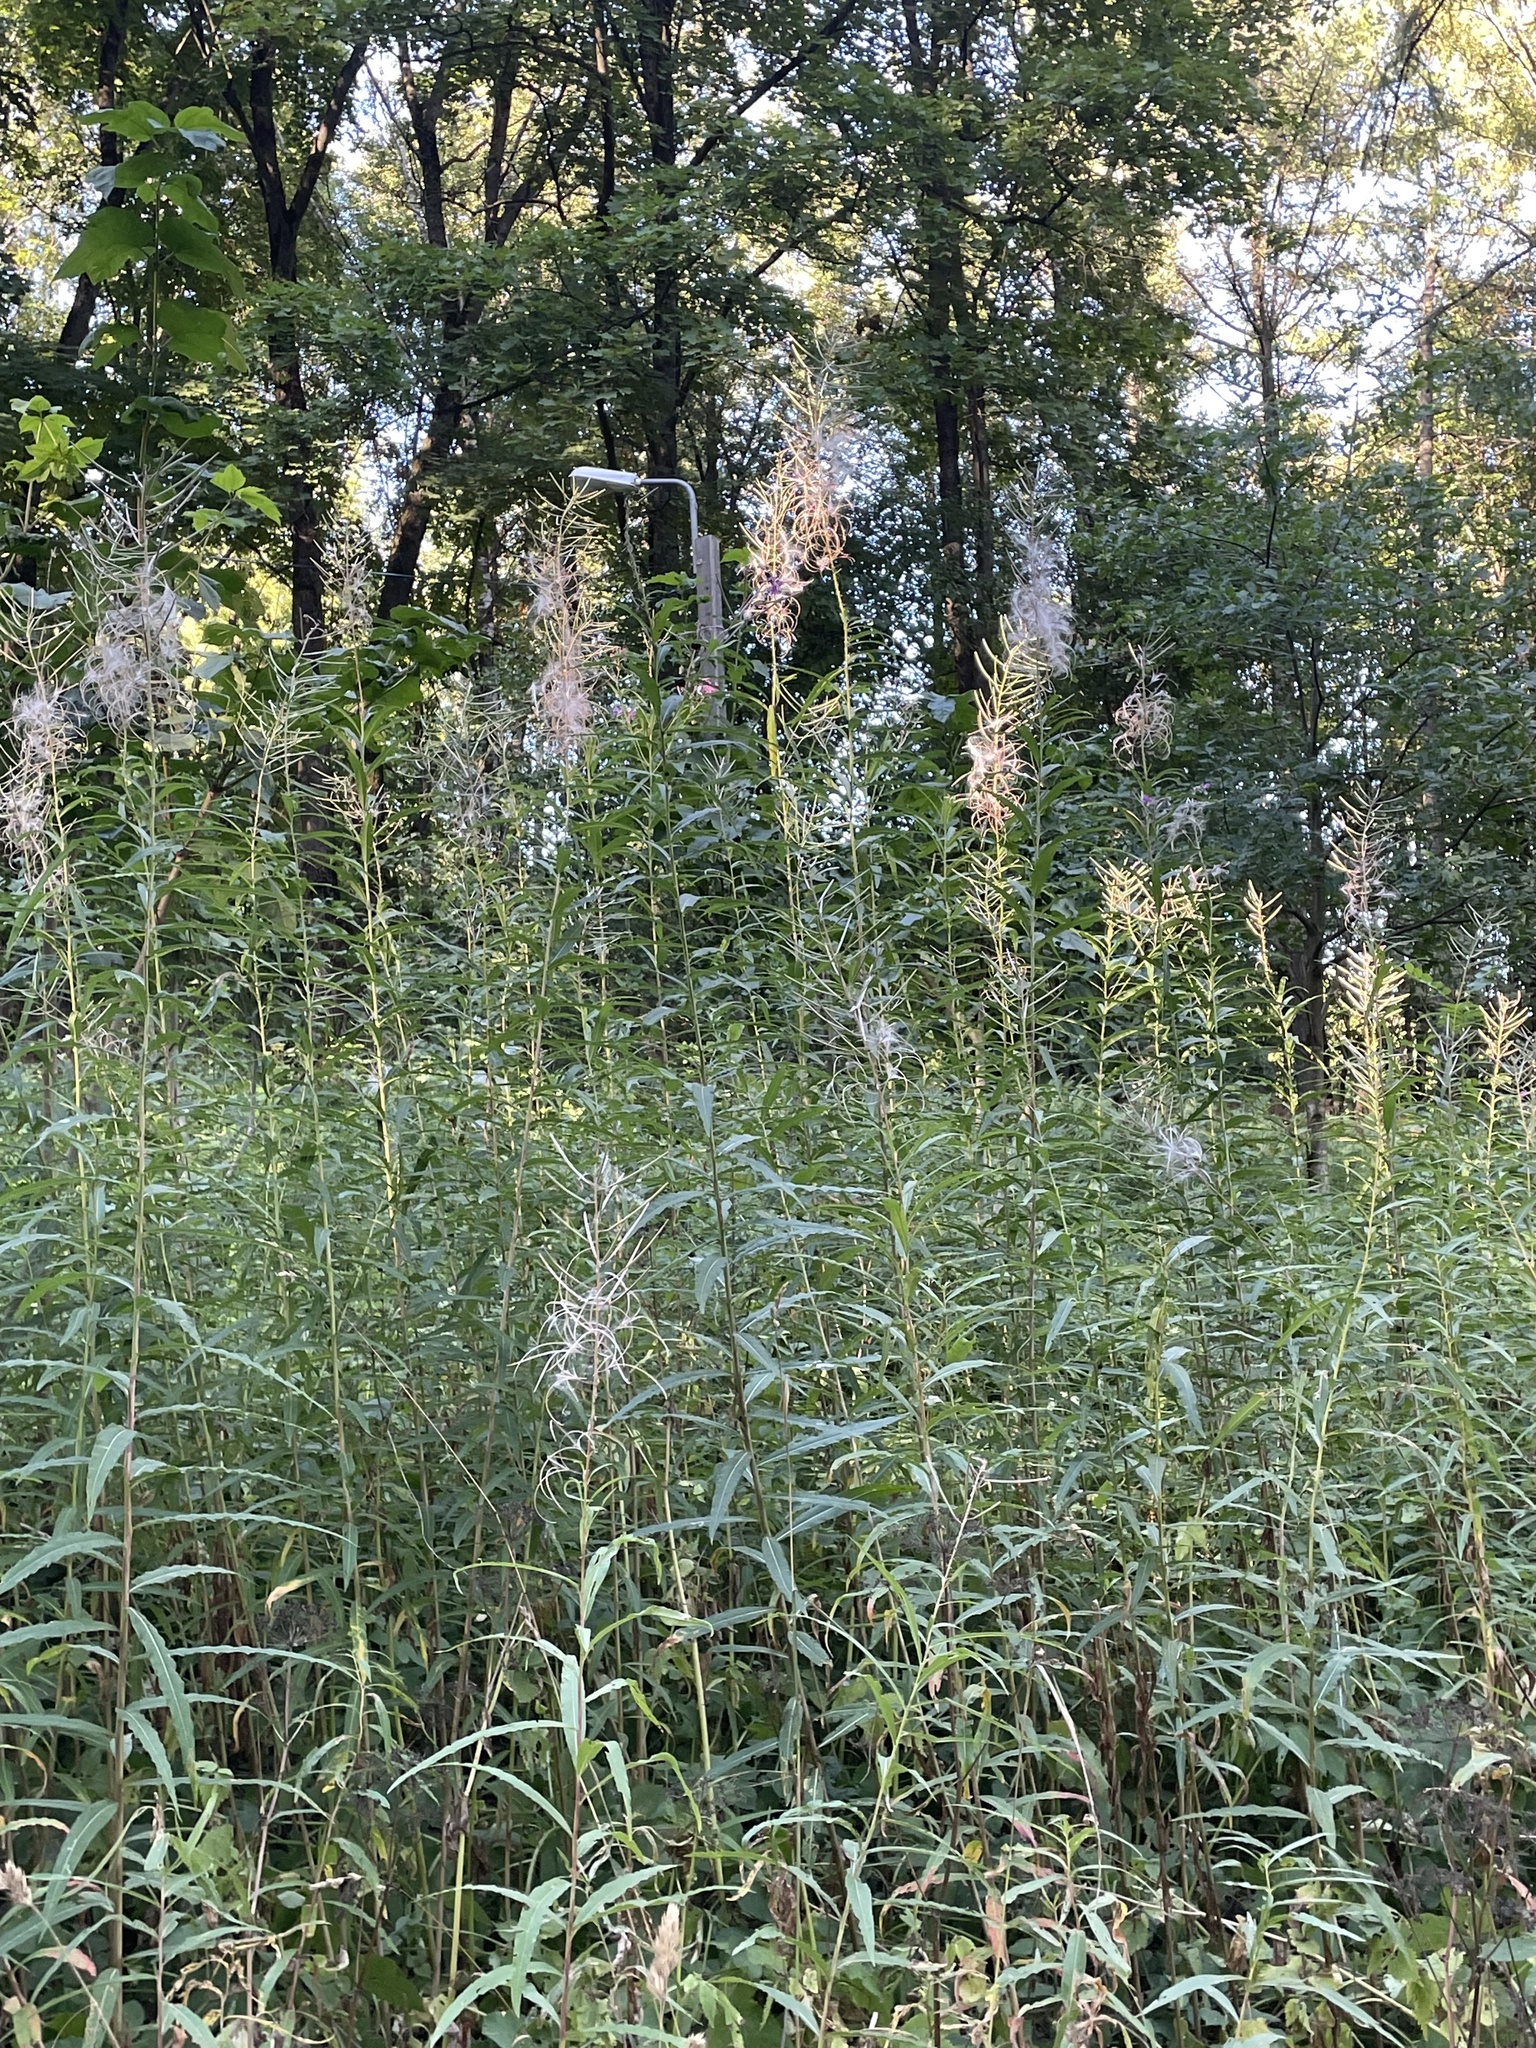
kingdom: Plantae
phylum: Tracheophyta
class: Magnoliopsida
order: Myrtales
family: Onagraceae
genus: Chamaenerion
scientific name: Chamaenerion angustifolium
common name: Fireweed
